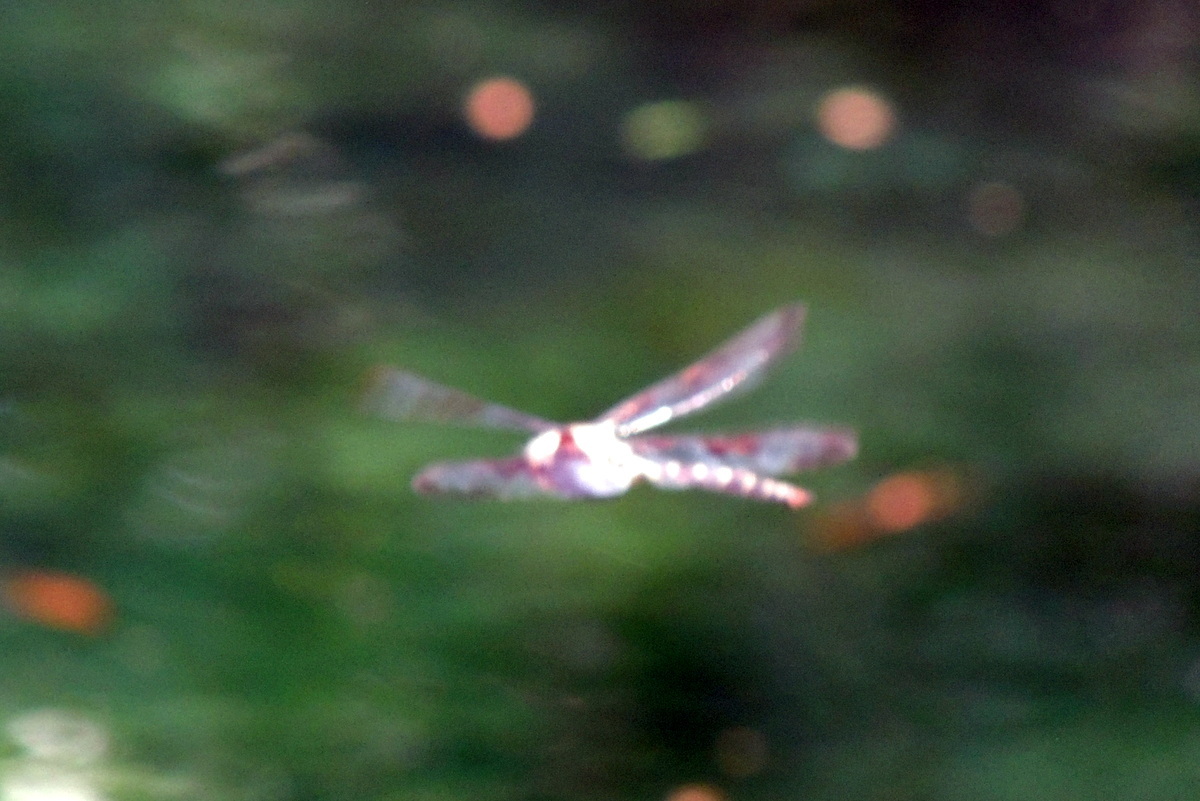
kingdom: Animalia
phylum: Arthropoda
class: Insecta
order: Odonata
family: Corduliidae
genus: Epitheca
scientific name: Epitheca princeps
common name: Prince baskettail
